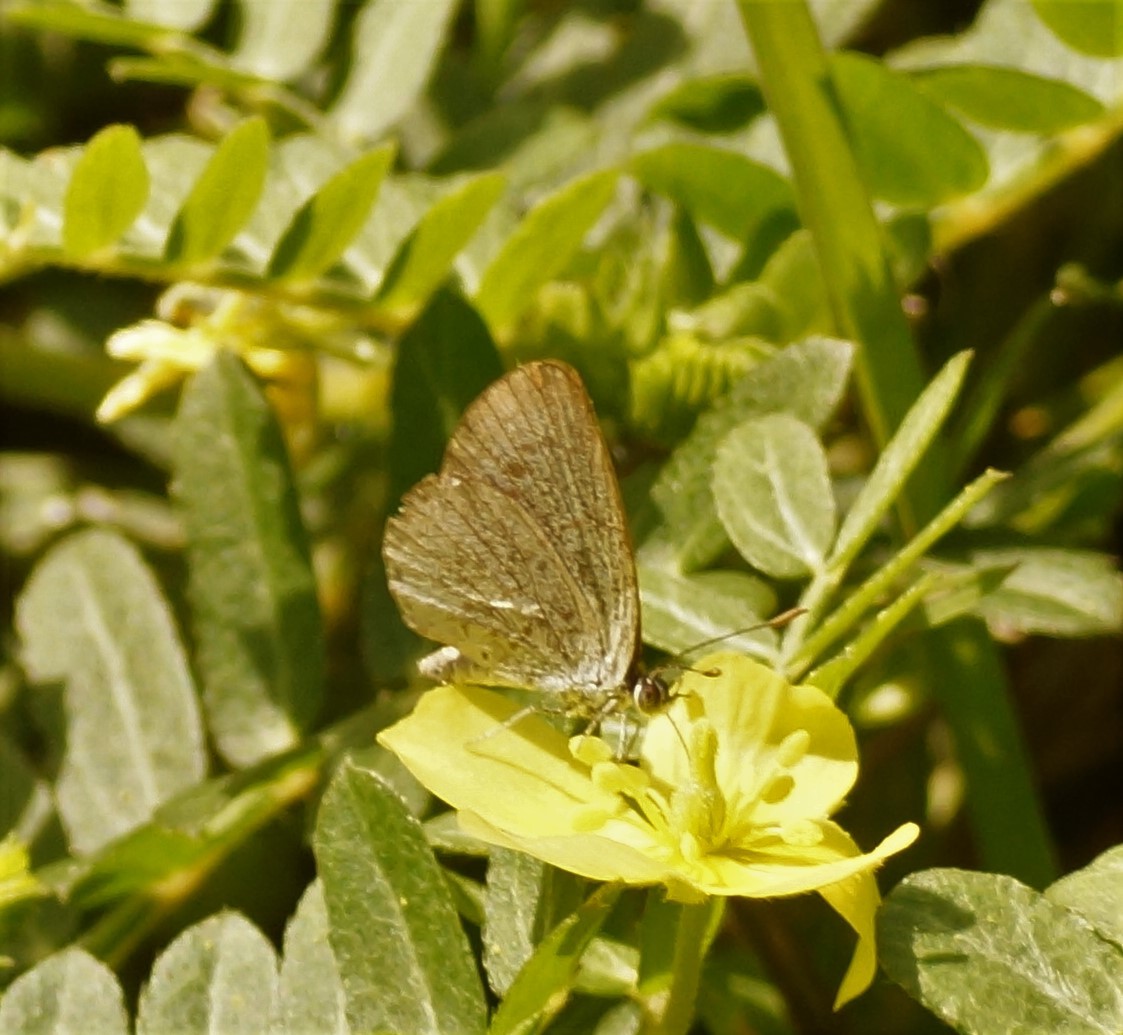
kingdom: Animalia
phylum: Arthropoda
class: Insecta
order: Lepidoptera
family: Lycaenidae
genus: Zizina
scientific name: Zizina otis
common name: Lesser grass blue
